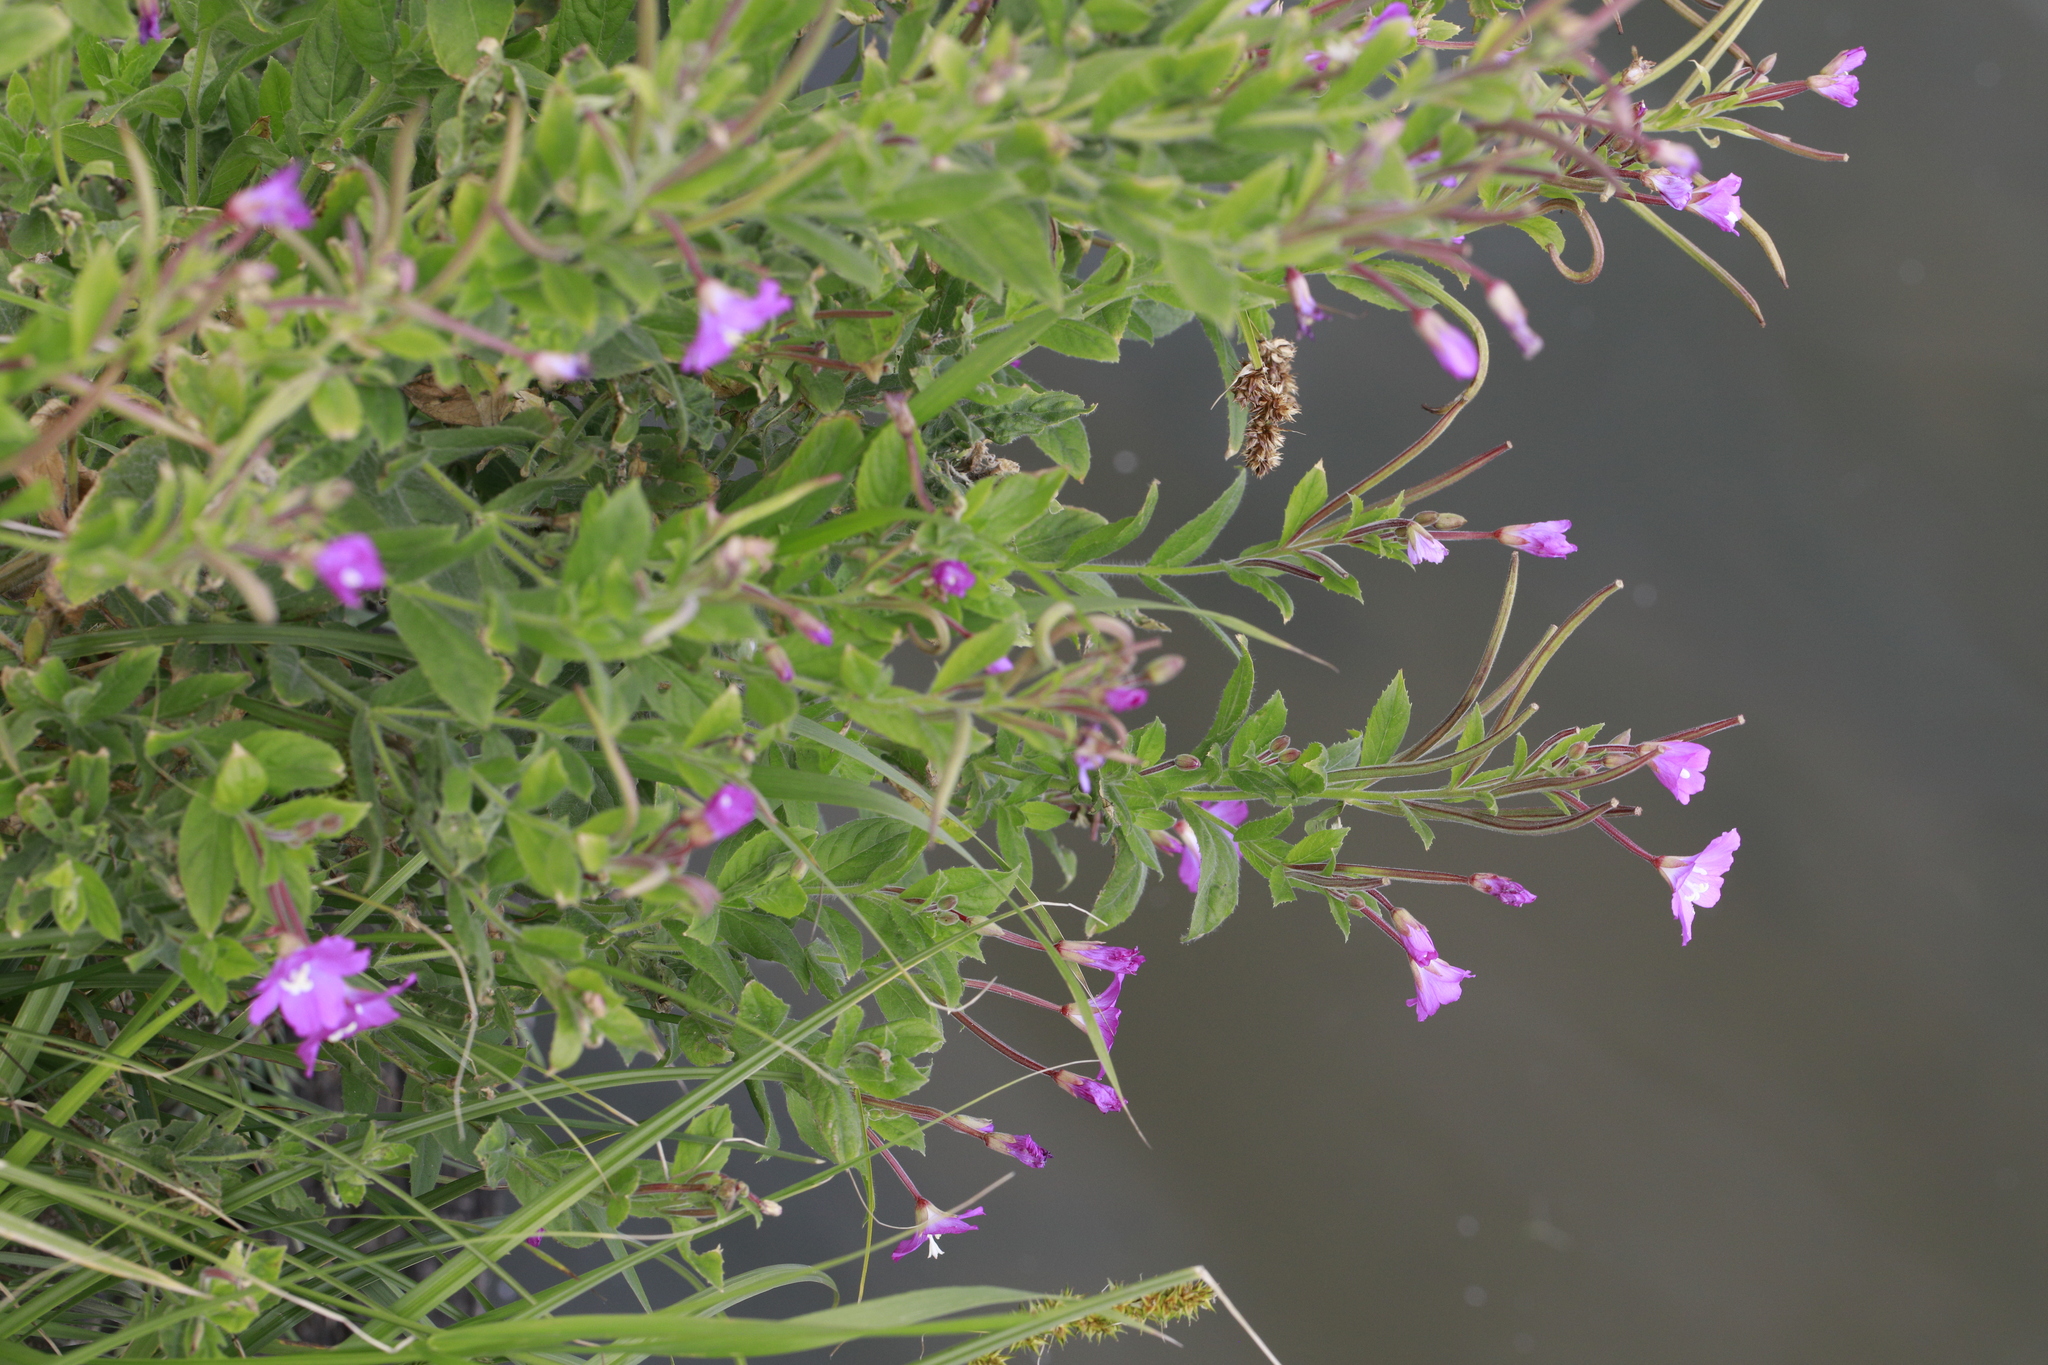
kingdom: Plantae
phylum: Tracheophyta
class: Magnoliopsida
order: Myrtales
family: Onagraceae
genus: Epilobium
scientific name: Epilobium hirsutum
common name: Great willowherb
